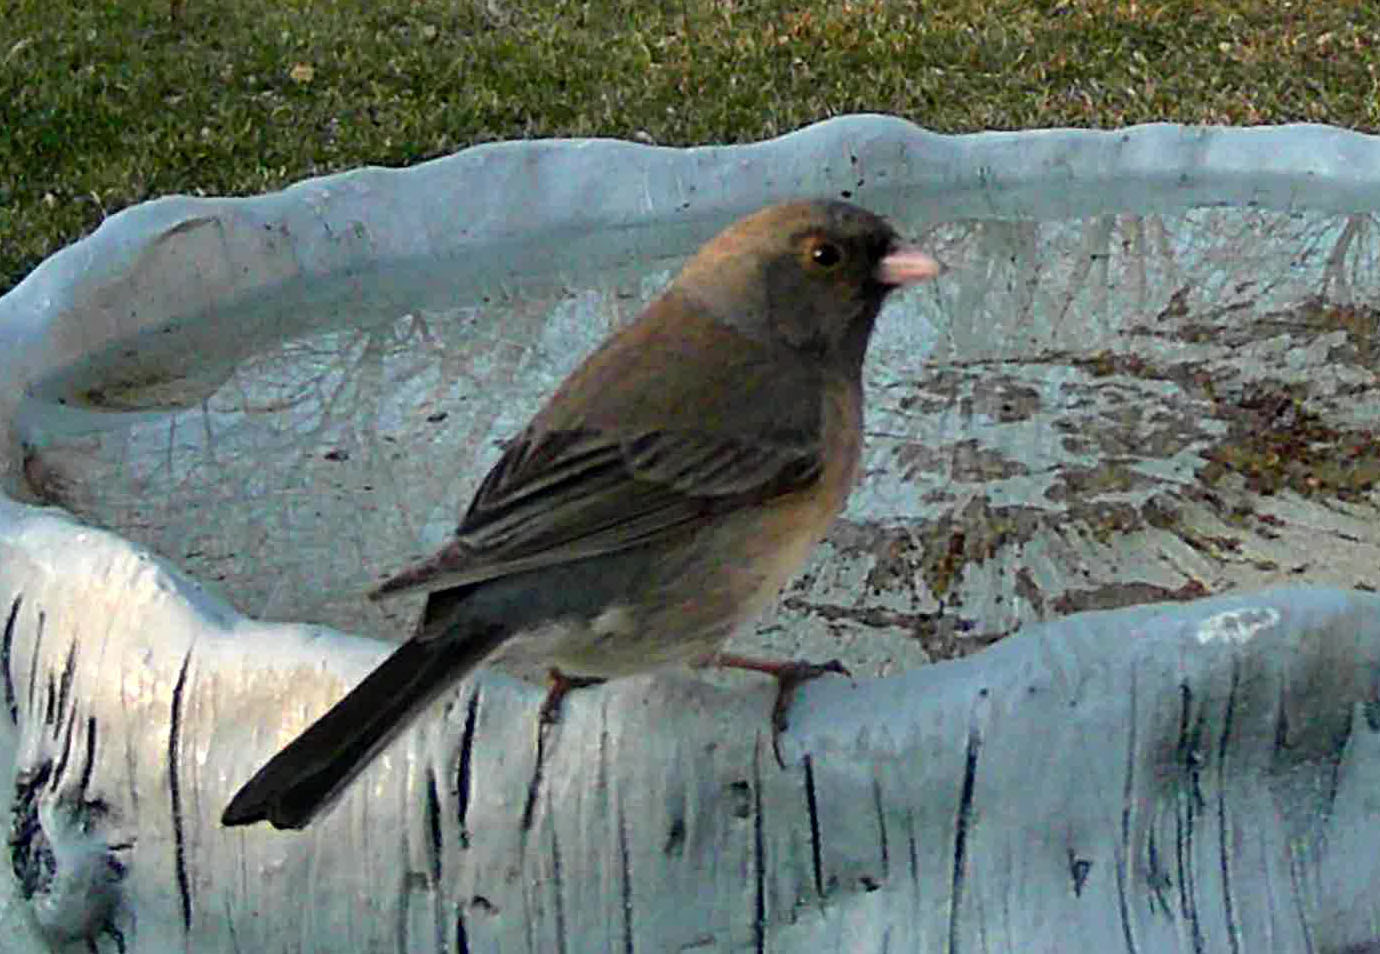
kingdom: Animalia
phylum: Chordata
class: Aves
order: Passeriformes
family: Passerellidae
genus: Junco
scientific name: Junco hyemalis
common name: Dark-eyed junco
